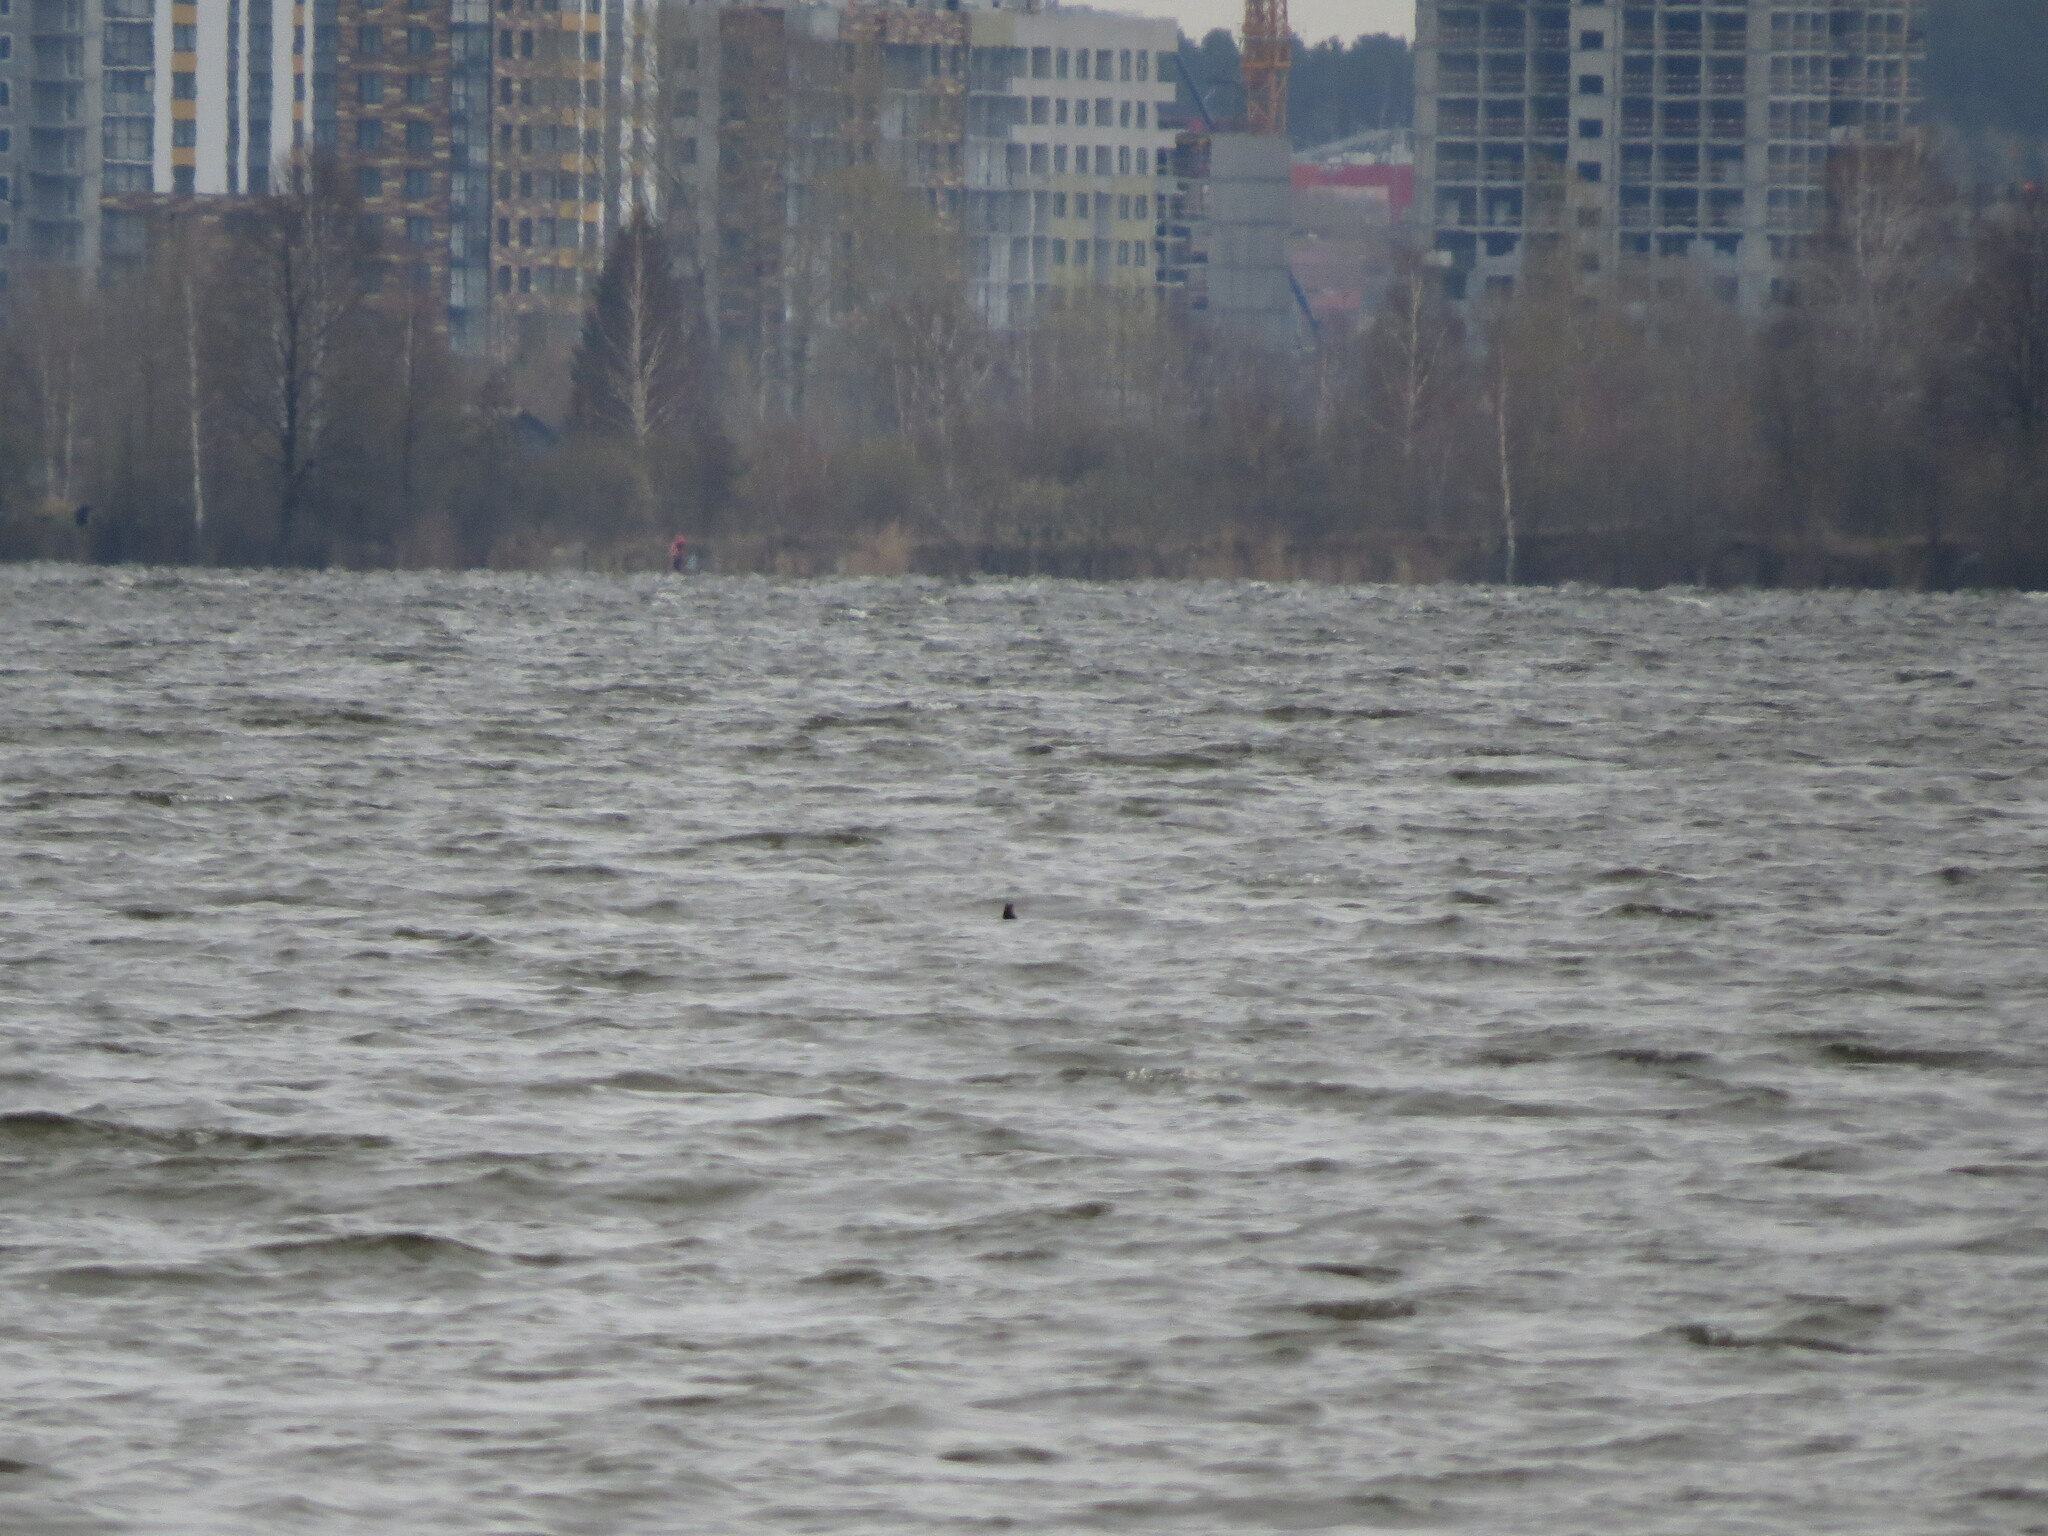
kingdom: Animalia
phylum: Chordata
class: Aves
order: Anseriformes
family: Anatidae
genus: Bucephala
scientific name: Bucephala clangula
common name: Common goldeneye
